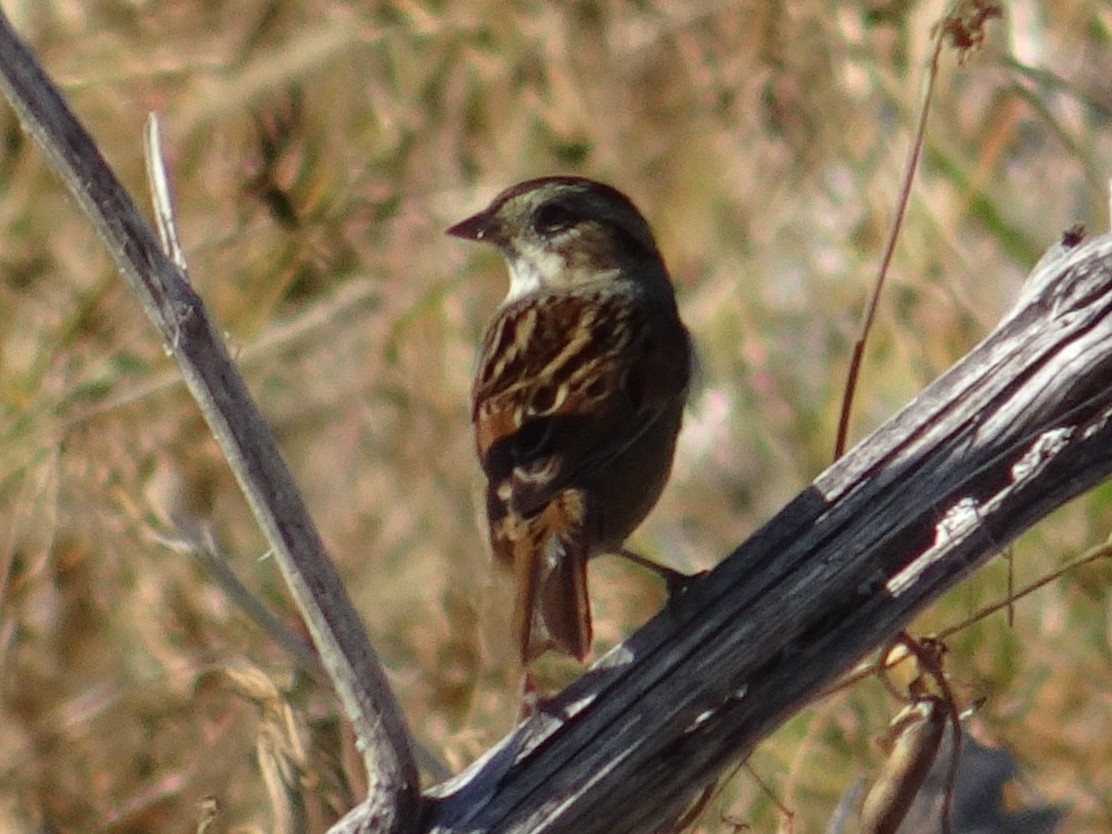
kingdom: Animalia
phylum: Chordata
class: Aves
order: Passeriformes
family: Passerellidae
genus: Melospiza
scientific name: Melospiza georgiana
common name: Swamp sparrow
